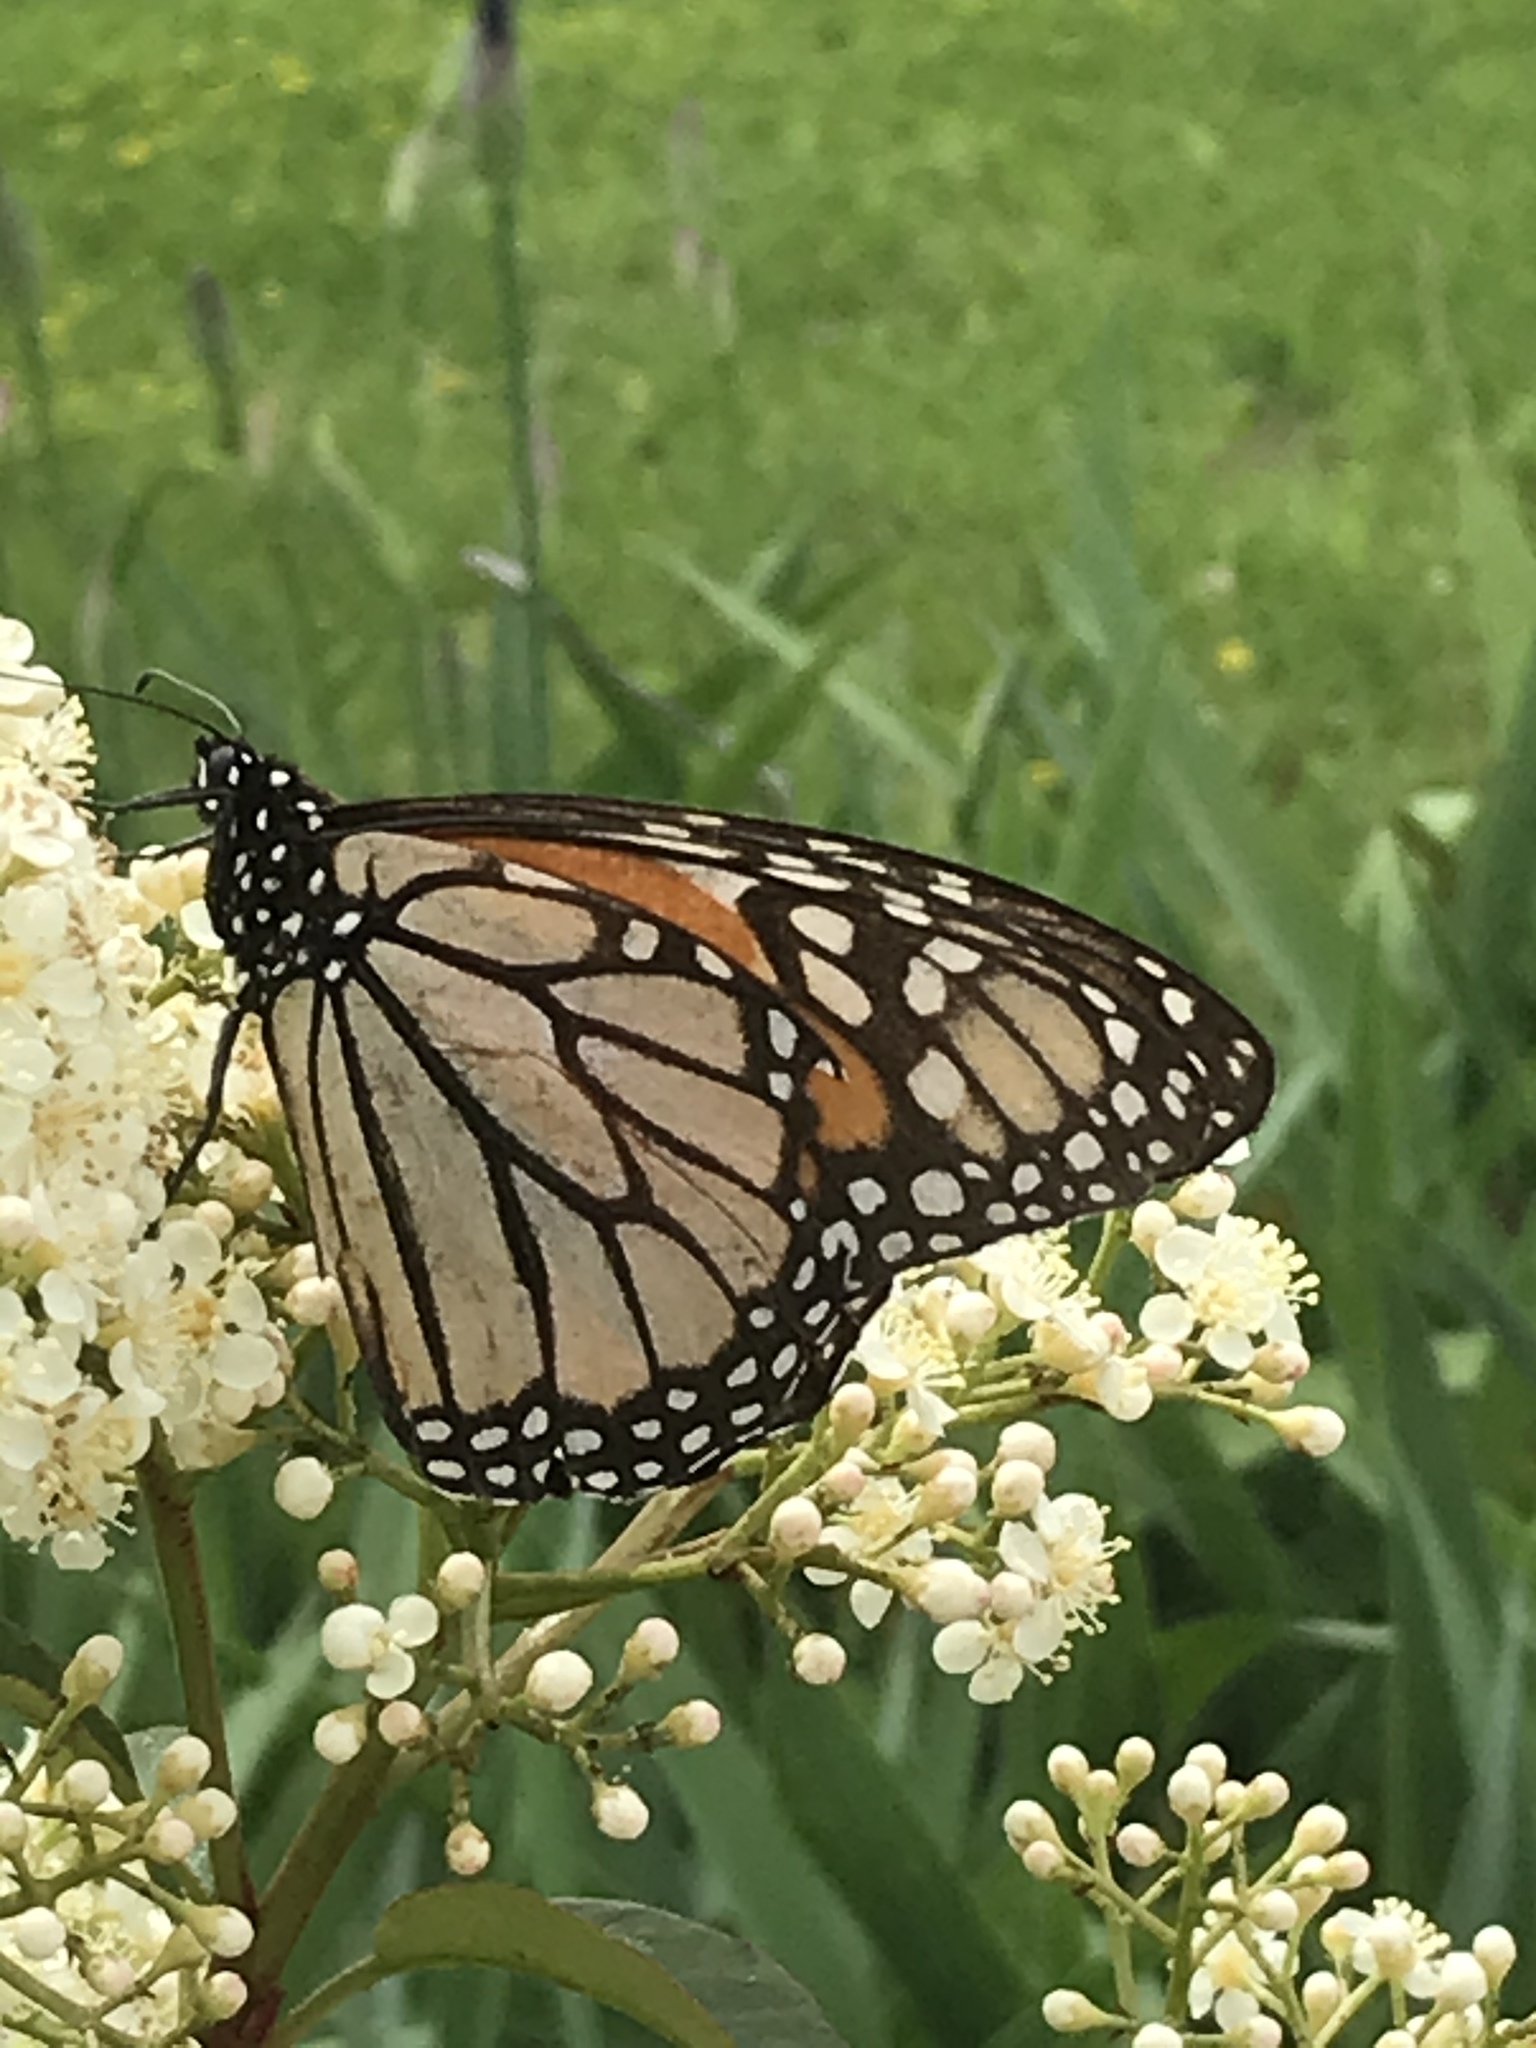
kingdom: Animalia
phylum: Arthropoda
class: Insecta
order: Lepidoptera
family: Nymphalidae
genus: Danaus
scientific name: Danaus plexippus
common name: Monarch
